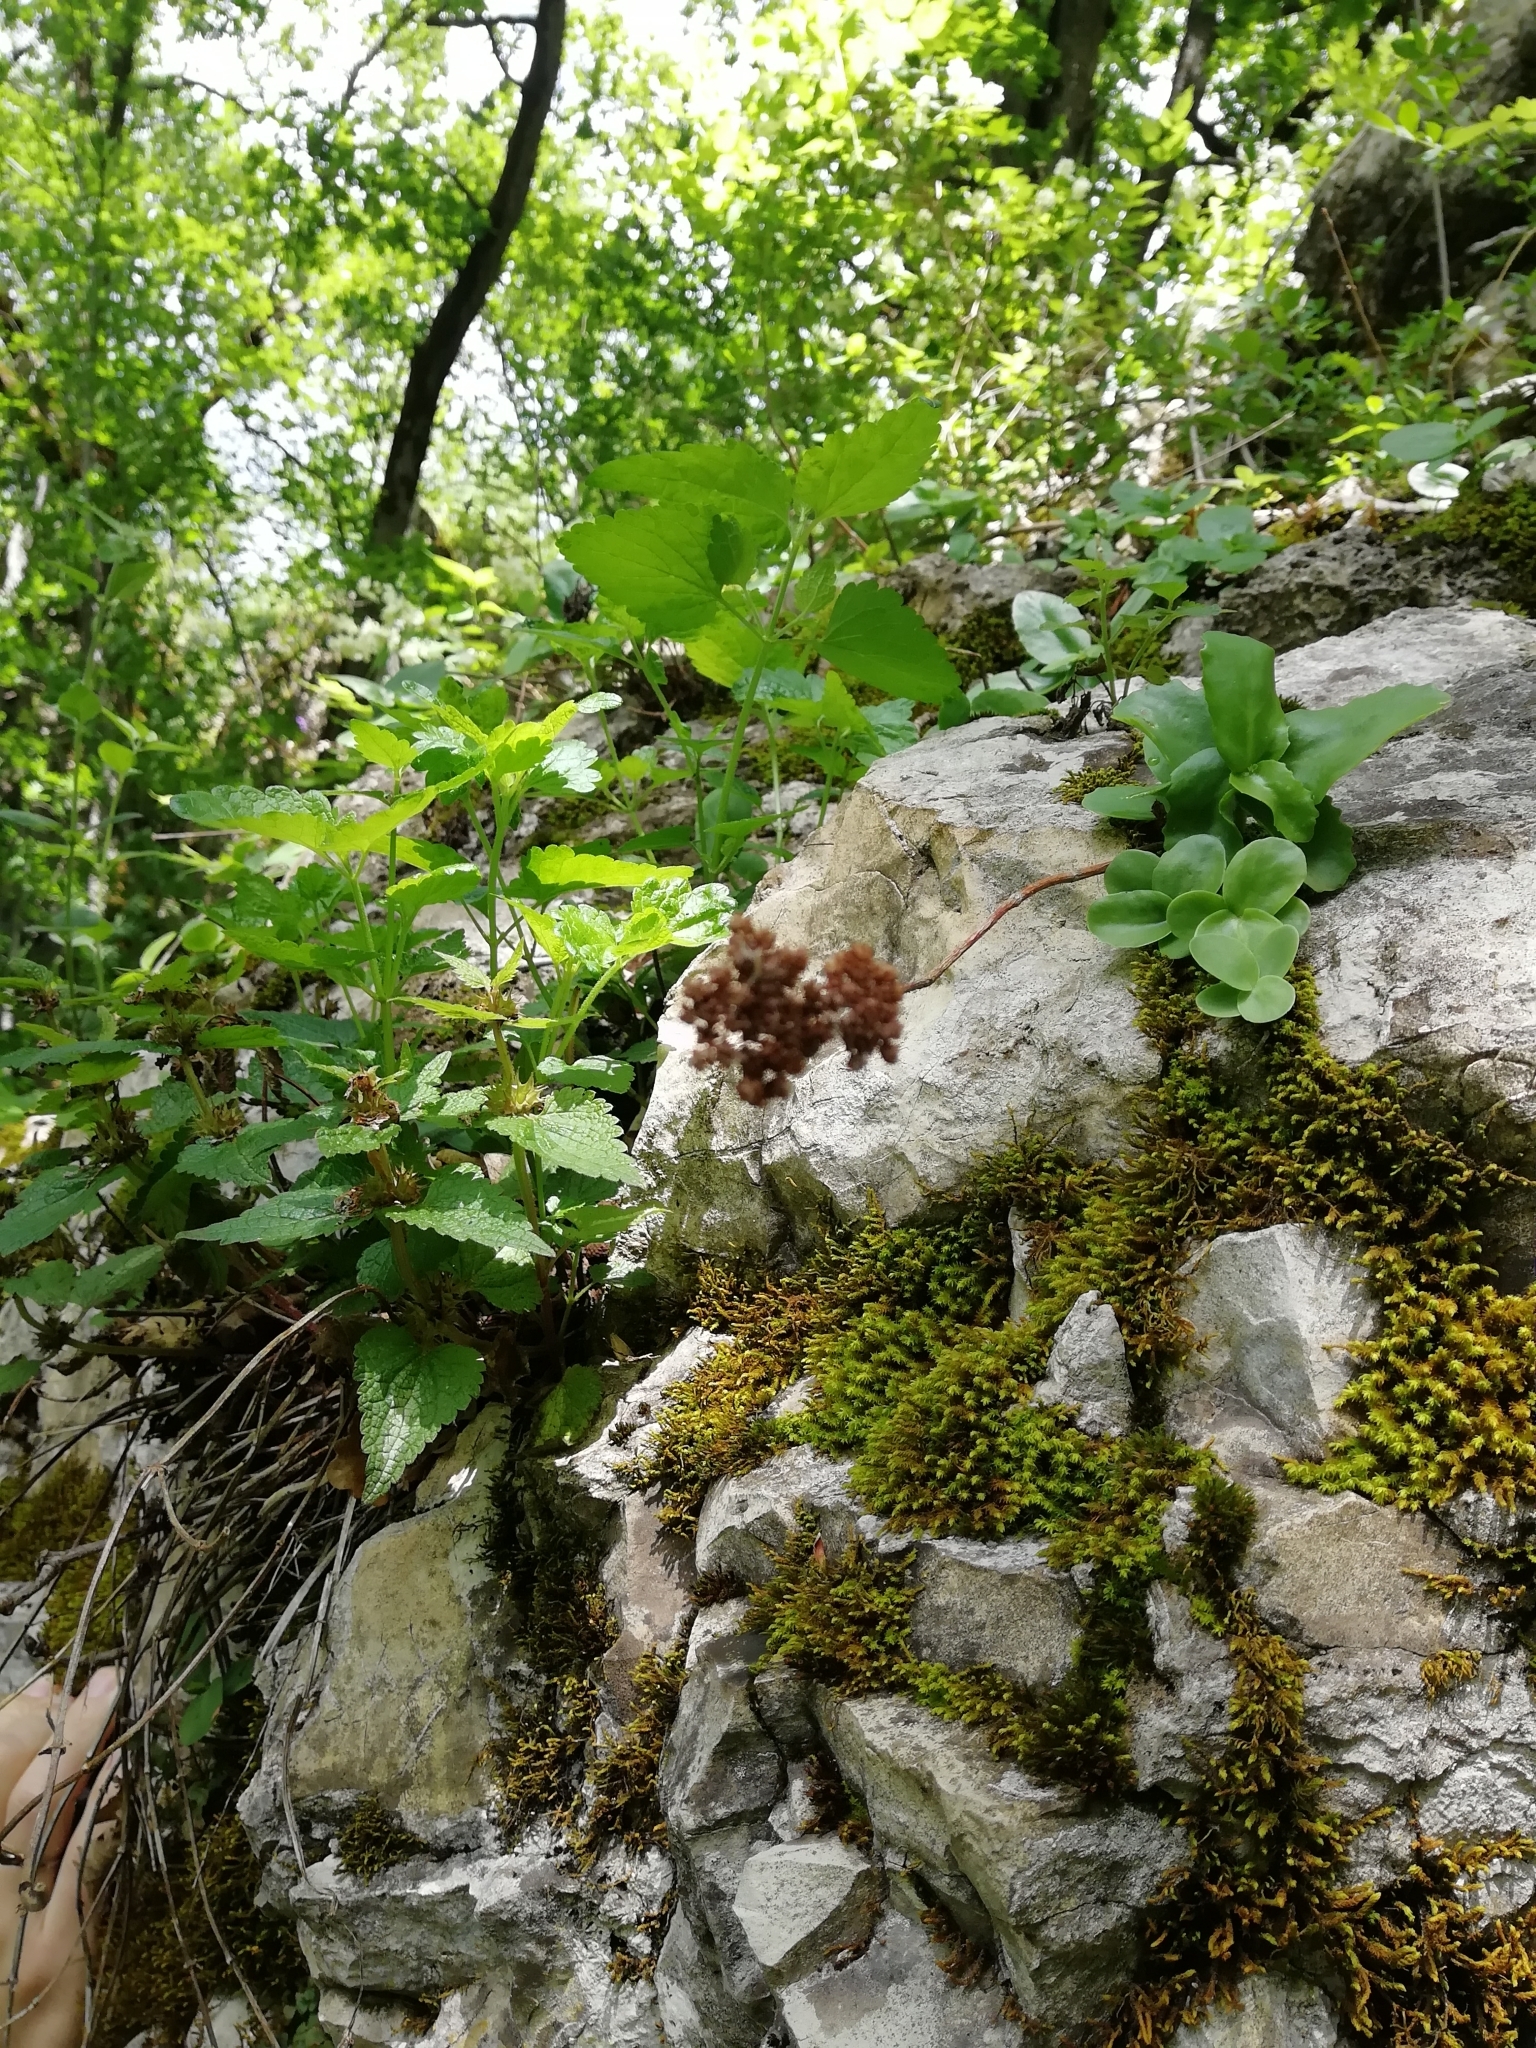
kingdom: Plantae
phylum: Tracheophyta
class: Magnoliopsida
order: Saxifragales
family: Crassulaceae
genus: Hylotelephium
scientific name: Hylotelephium maximum
